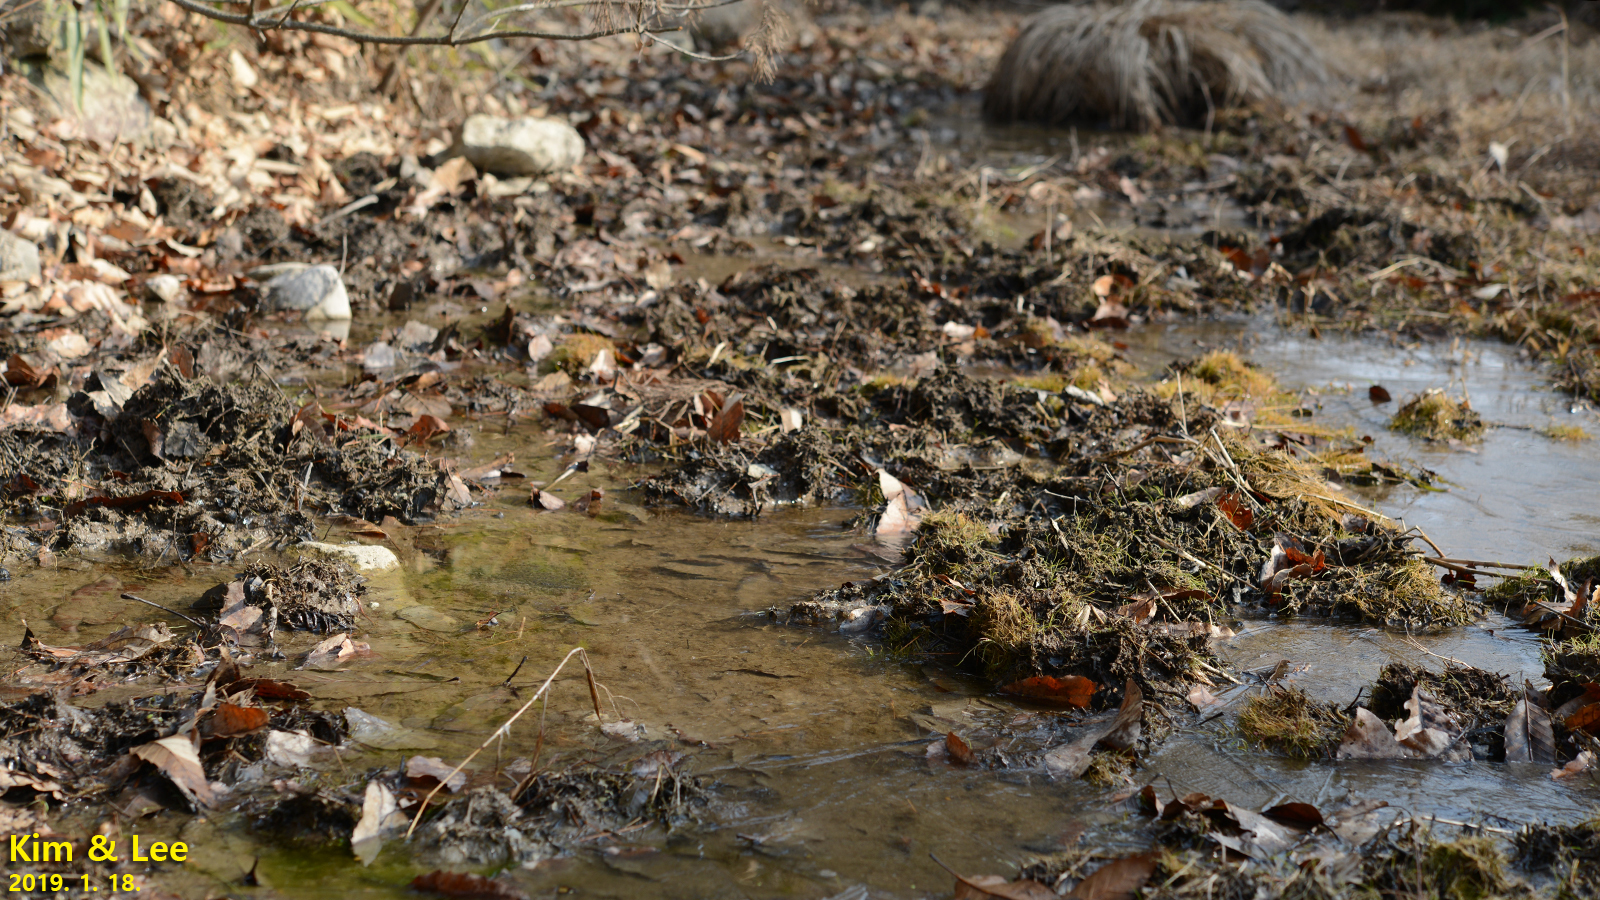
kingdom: Animalia
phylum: Chordata
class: Amphibia
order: Anura
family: Ranidae
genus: Rana
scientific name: Rana uenoi
